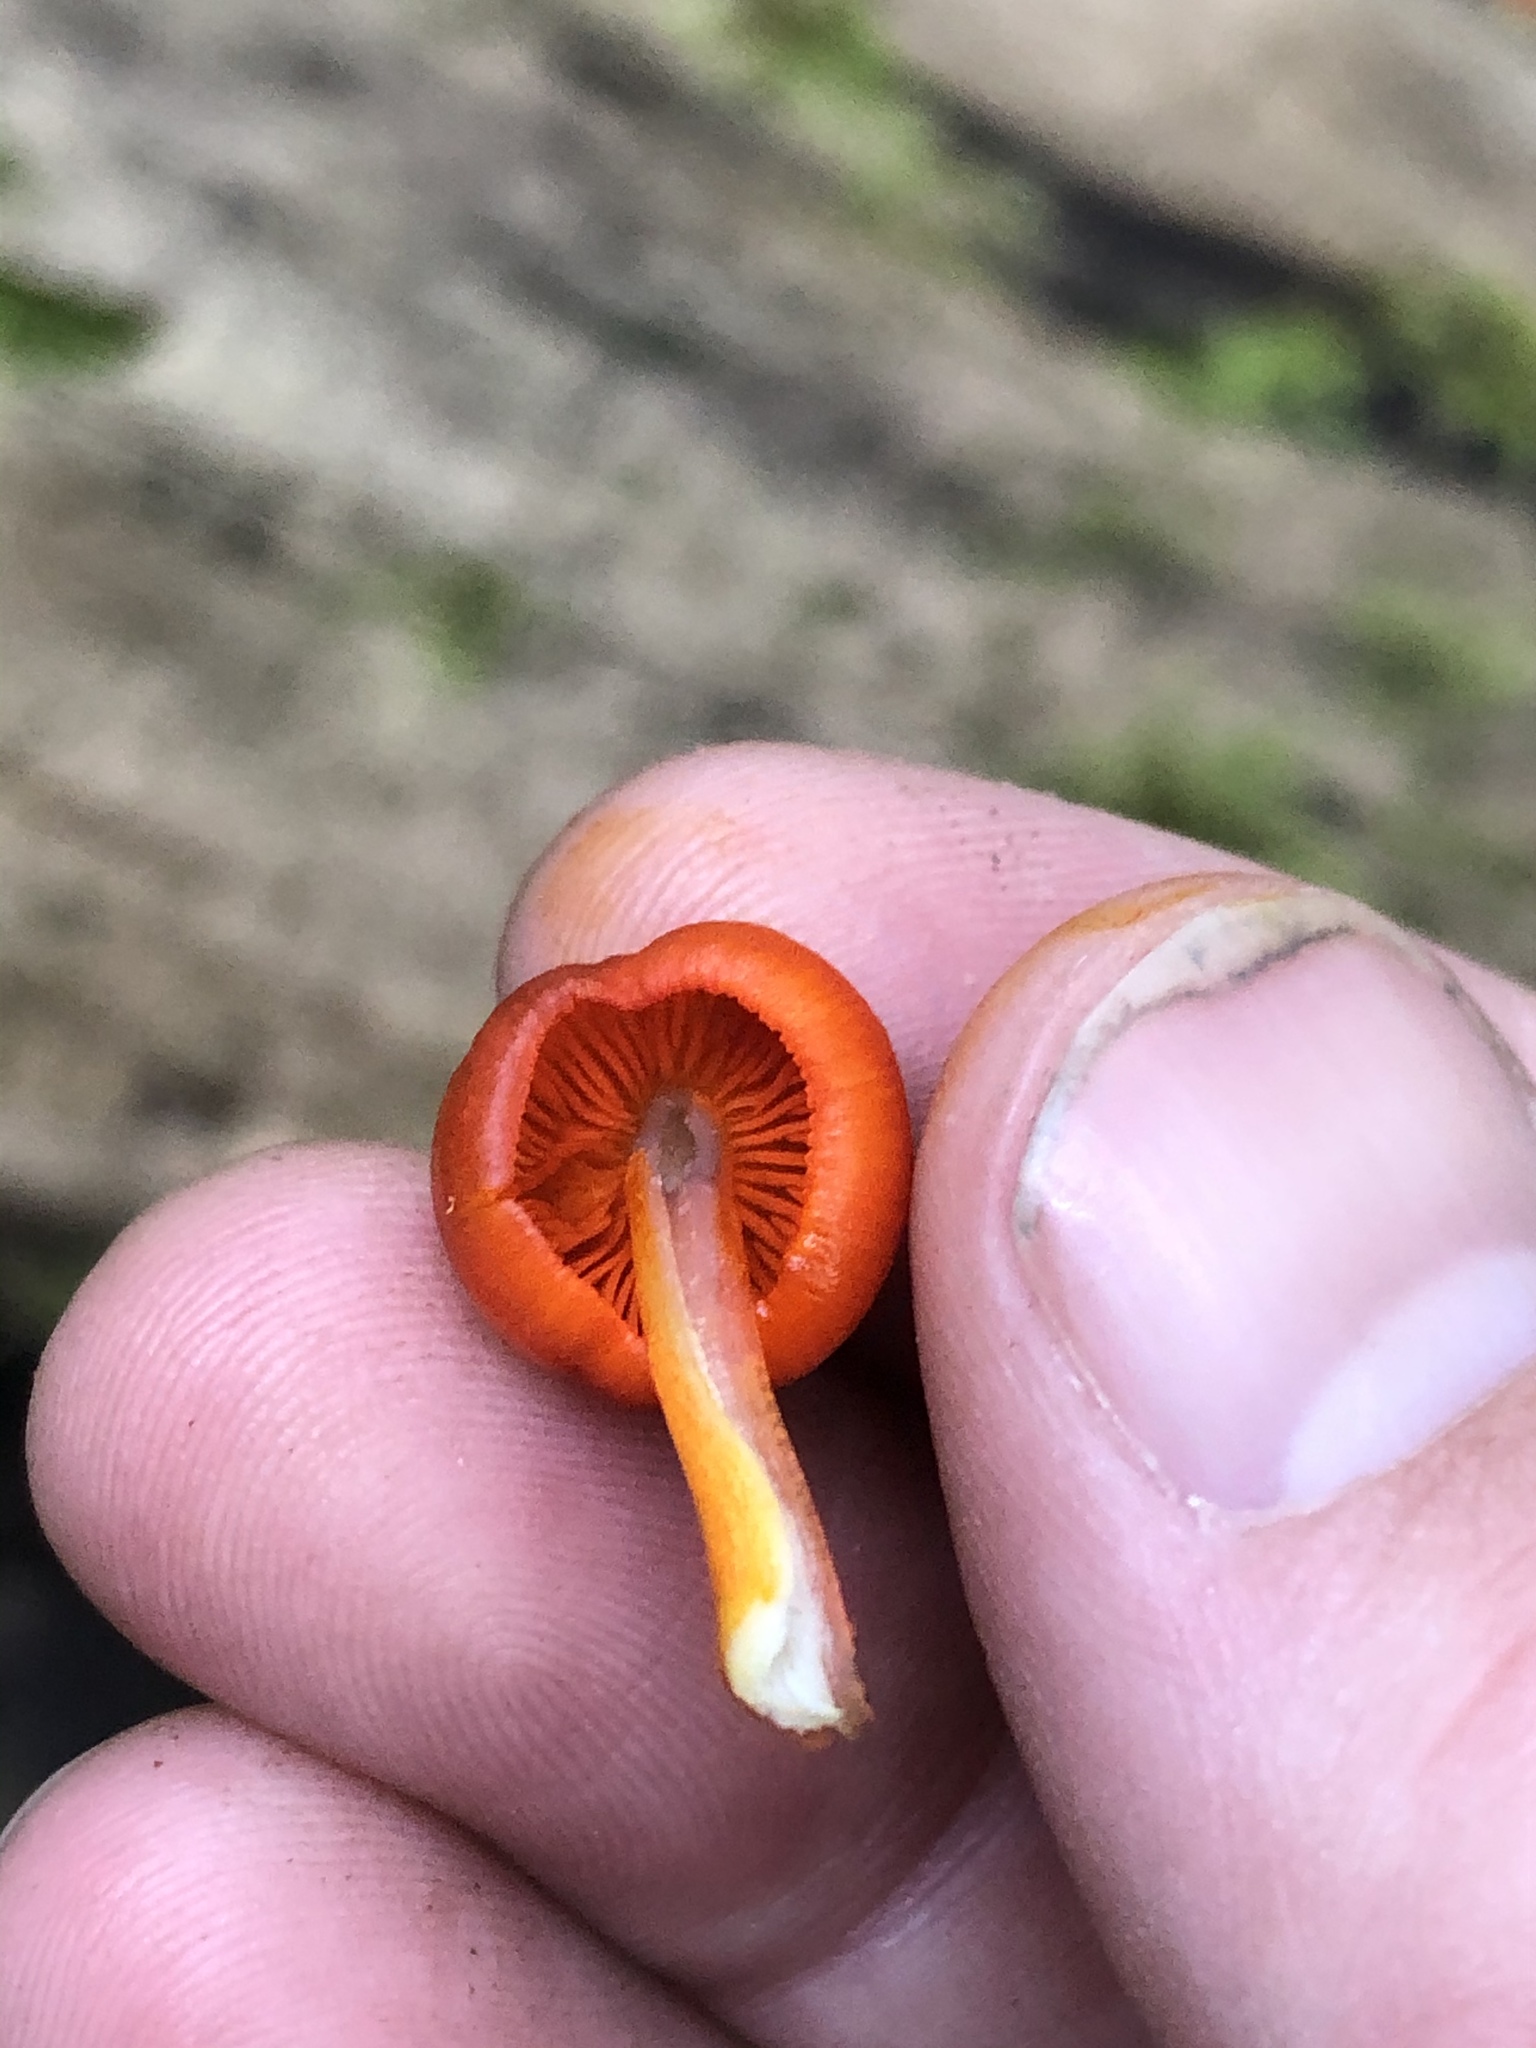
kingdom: Fungi
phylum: Basidiomycota
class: Agaricomycetes
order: Agaricales
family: Mycenaceae
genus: Mycena
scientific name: Mycena leaiana
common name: Orange mycena
